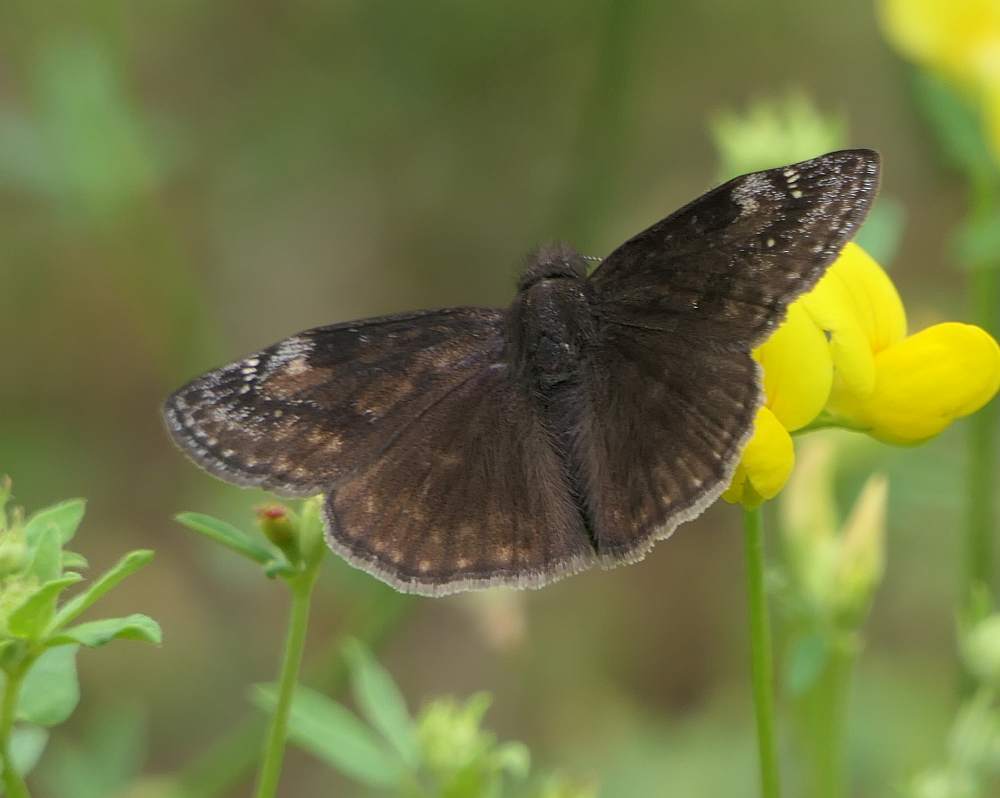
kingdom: Animalia
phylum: Arthropoda
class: Insecta
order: Lepidoptera
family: Hesperiidae
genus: Erynnis
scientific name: Erynnis baptisiae
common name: Wild indigo duskywing
